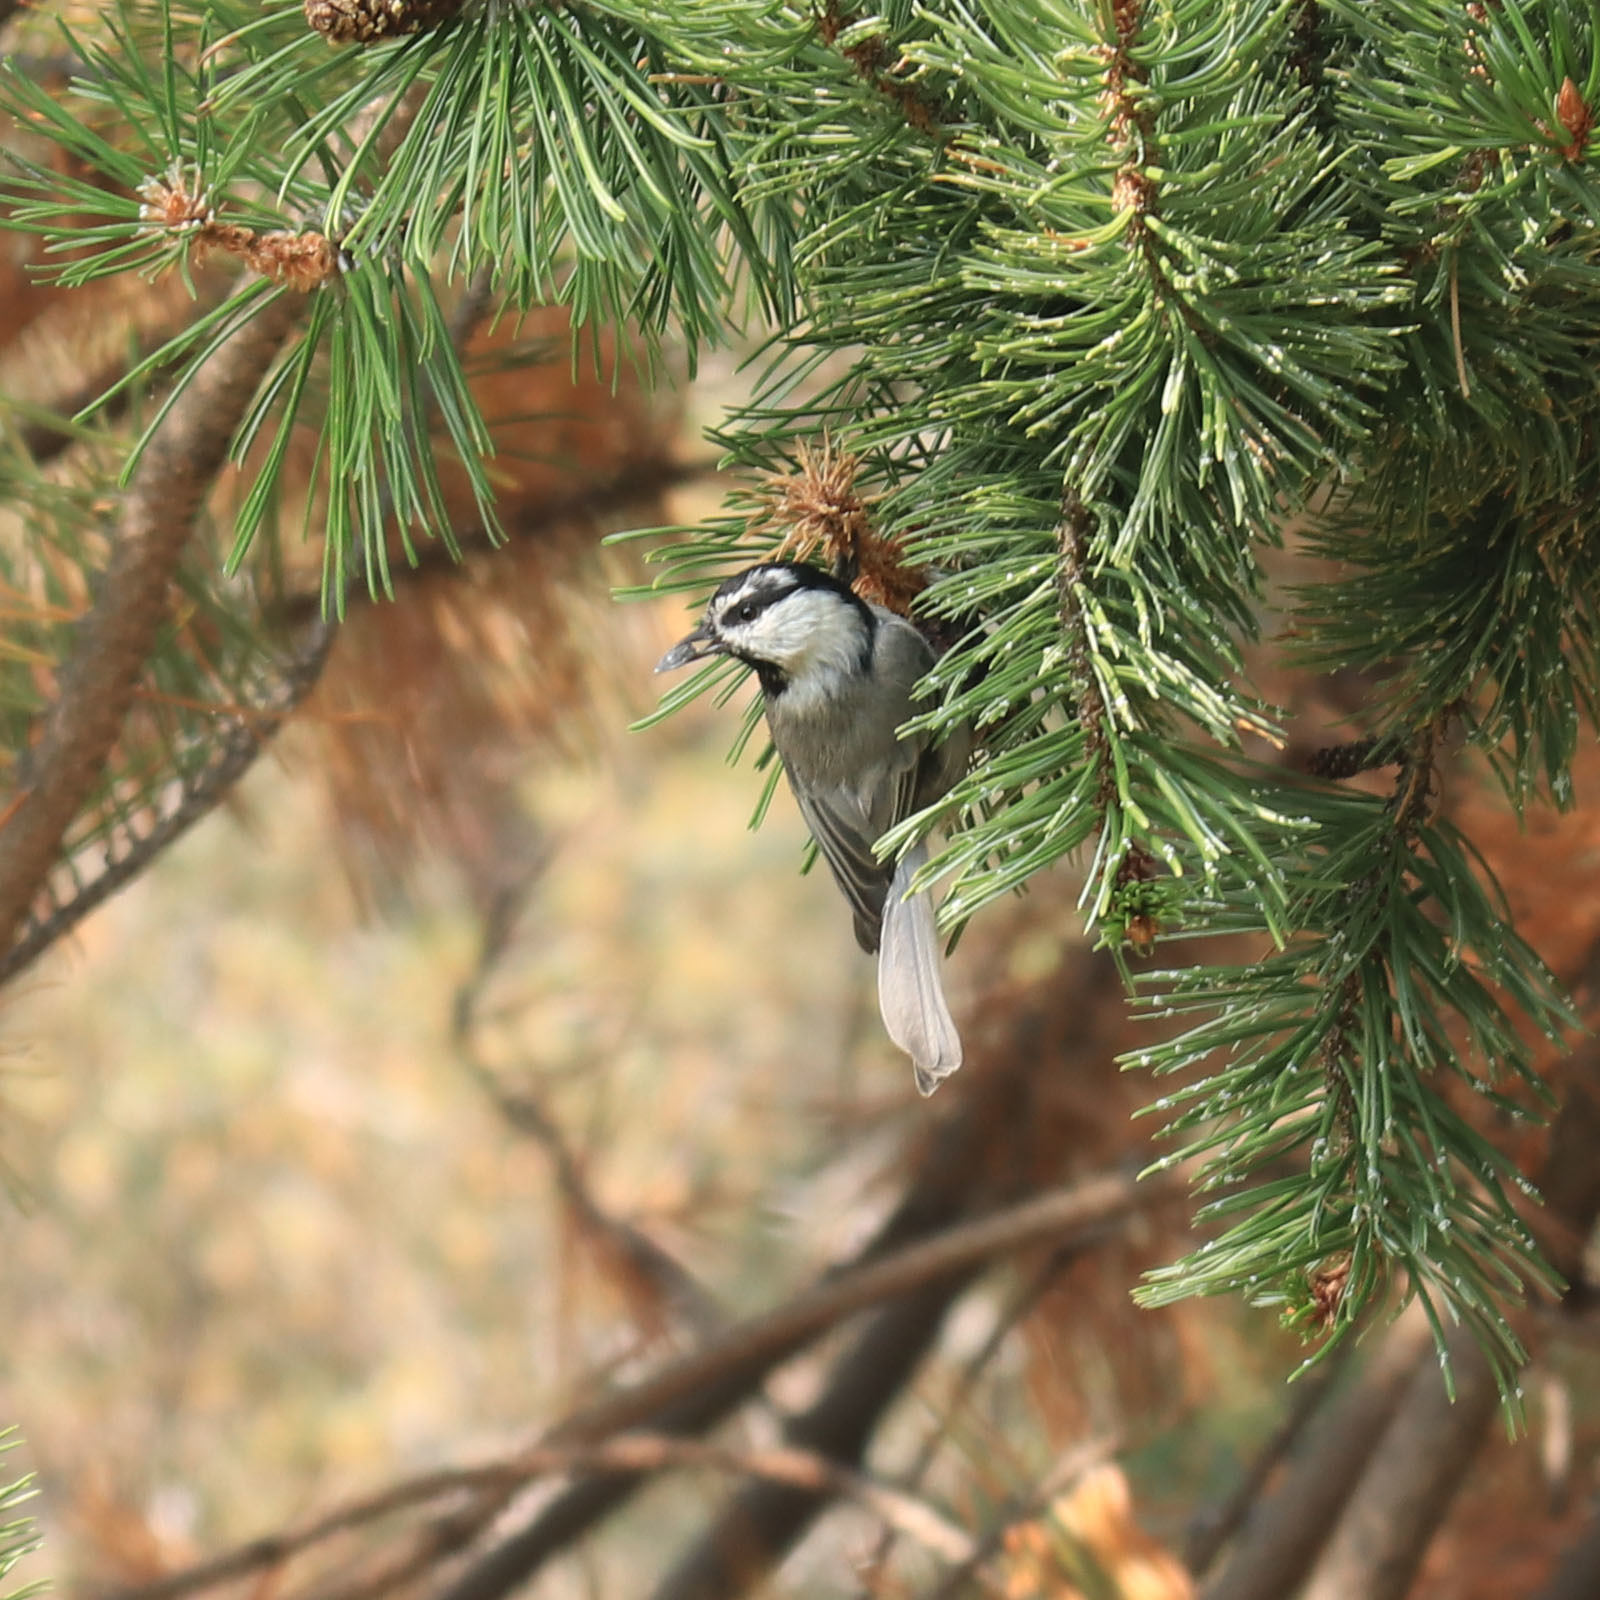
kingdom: Animalia
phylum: Chordata
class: Aves
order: Passeriformes
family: Paridae
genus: Poecile
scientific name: Poecile gambeli
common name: Mountain chickadee
